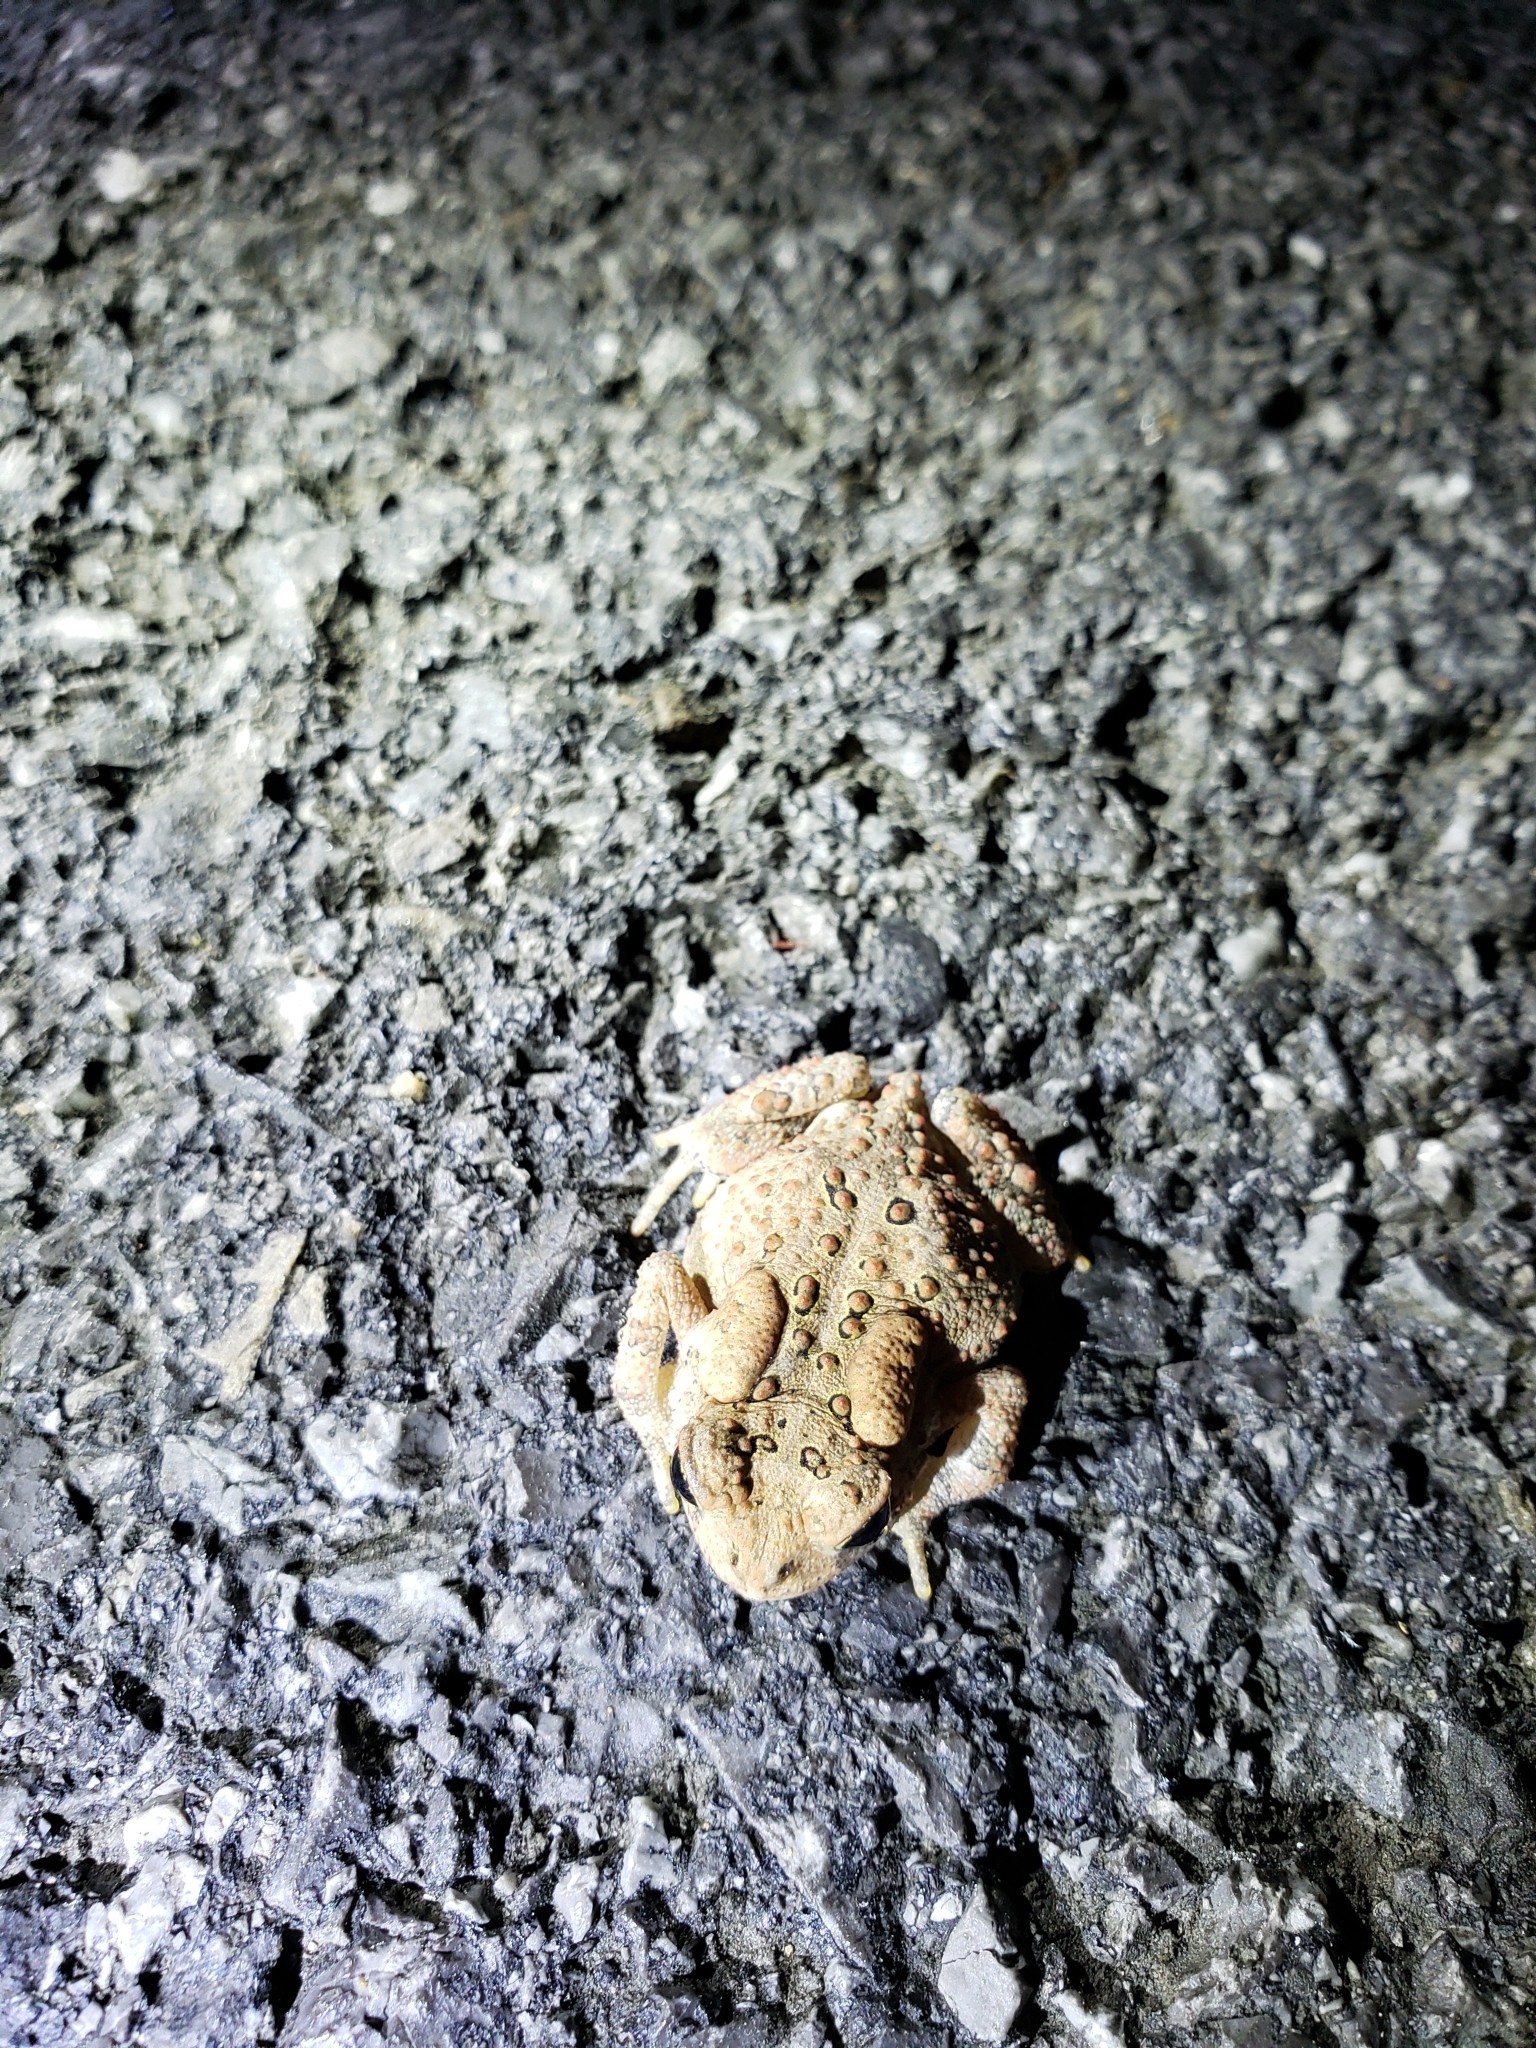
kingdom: Animalia
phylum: Chordata
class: Amphibia
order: Anura
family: Bufonidae
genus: Anaxyrus
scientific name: Anaxyrus americanus
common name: American toad
